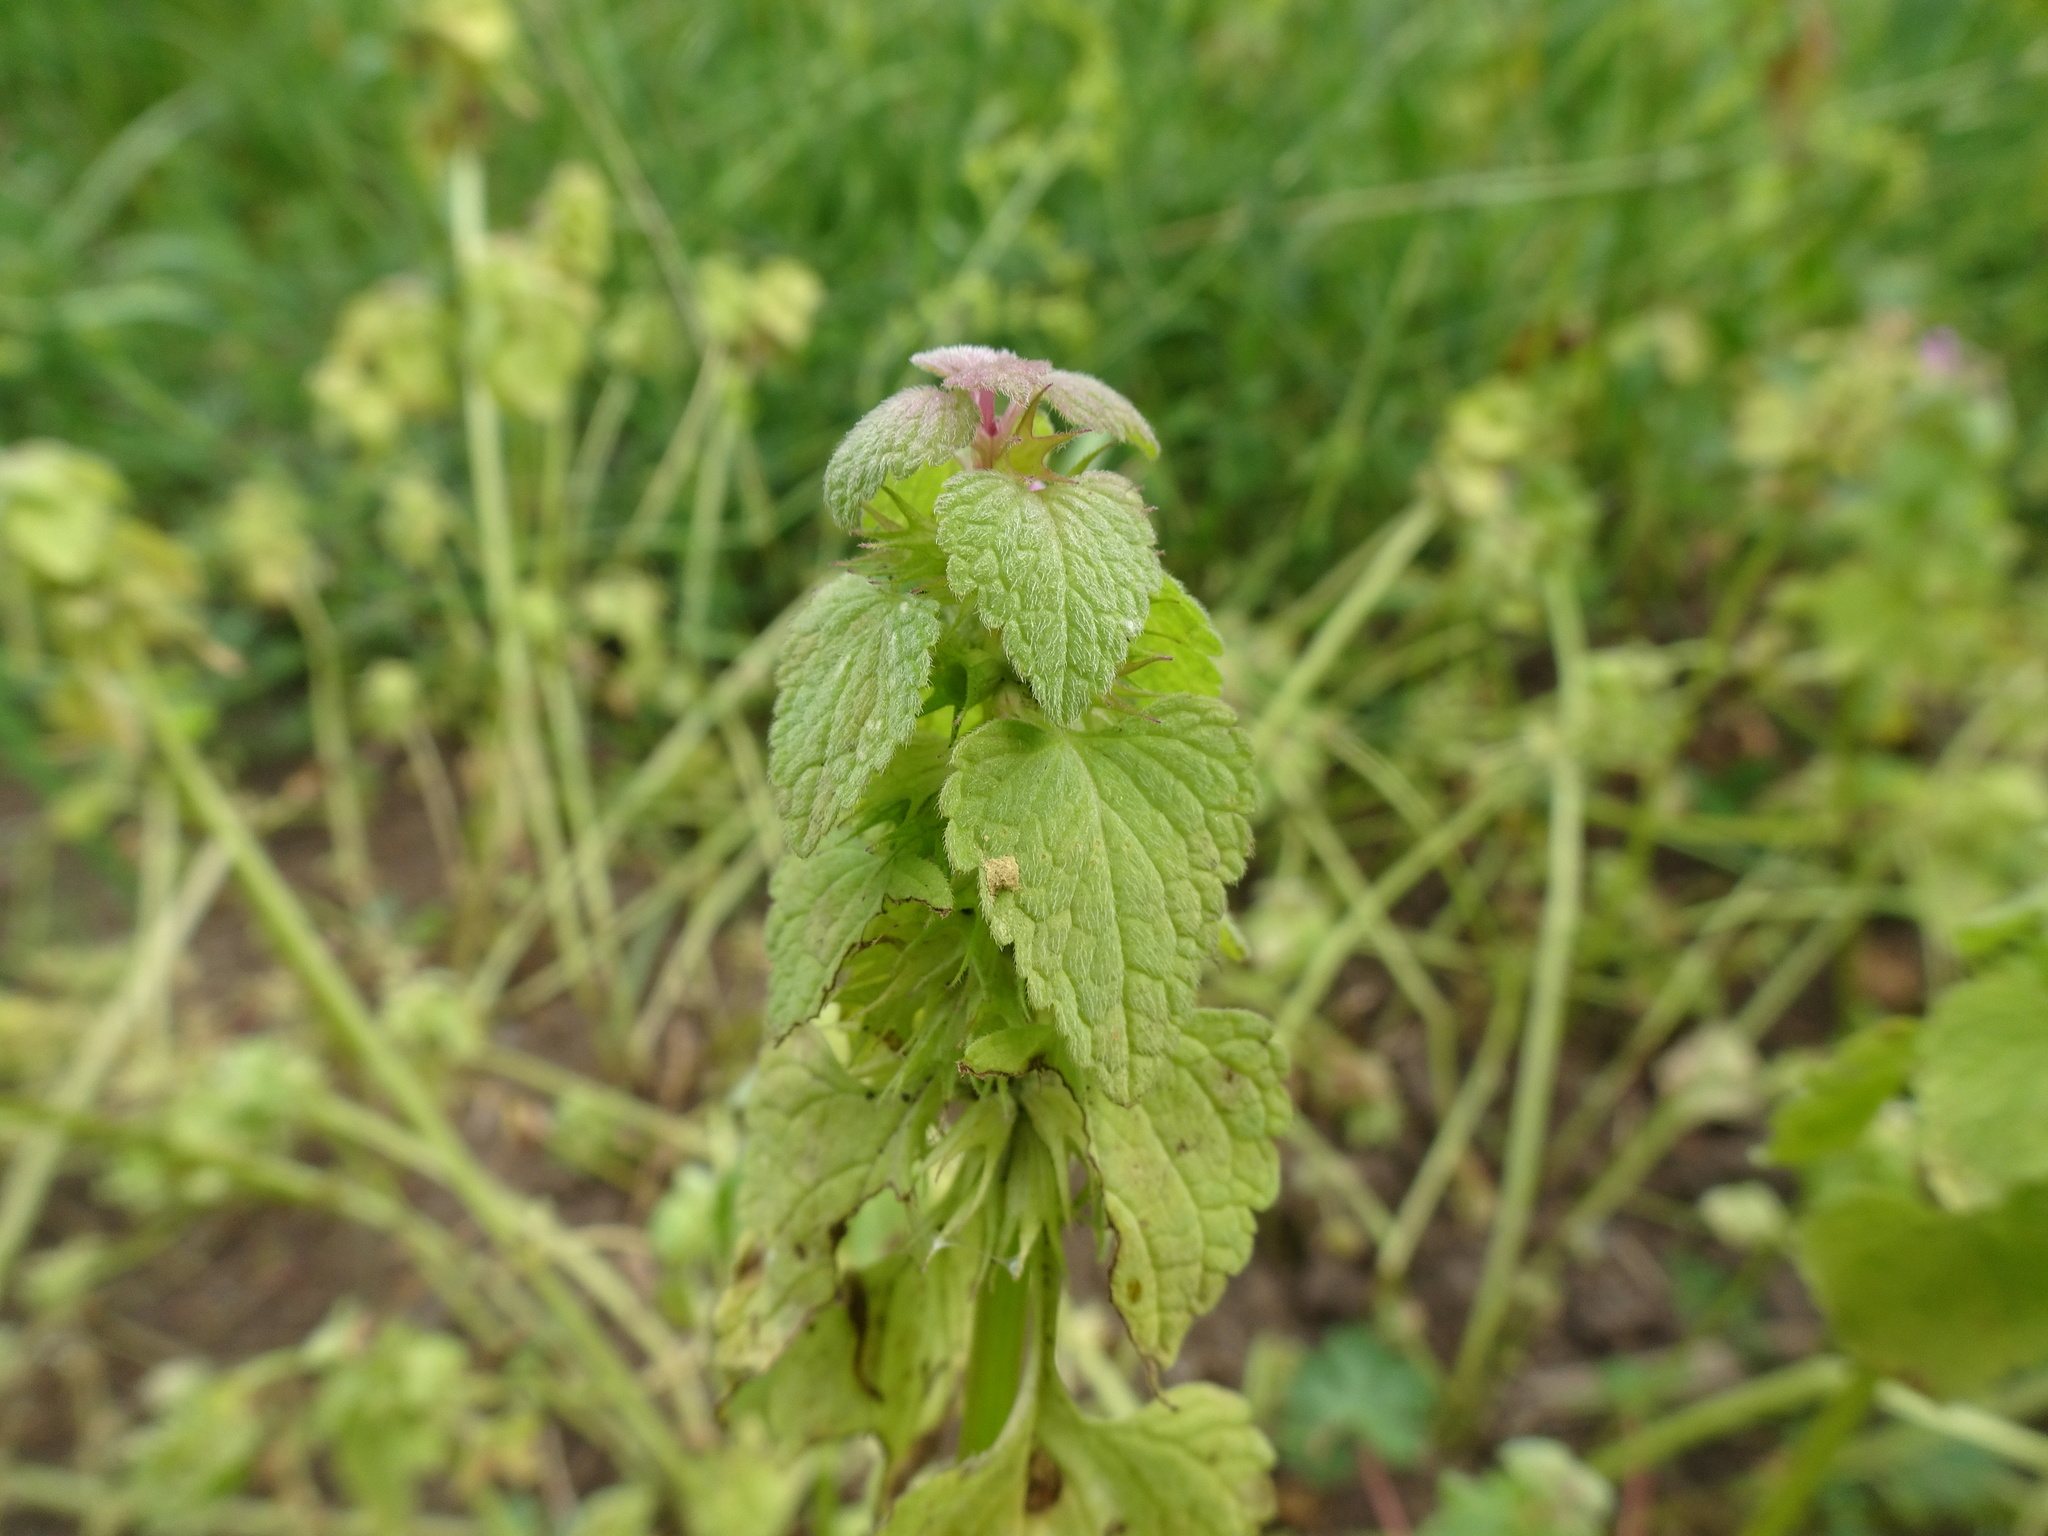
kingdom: Plantae
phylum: Tracheophyta
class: Magnoliopsida
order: Lamiales
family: Lamiaceae
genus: Lamium
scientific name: Lamium purpureum
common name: Red dead-nettle
